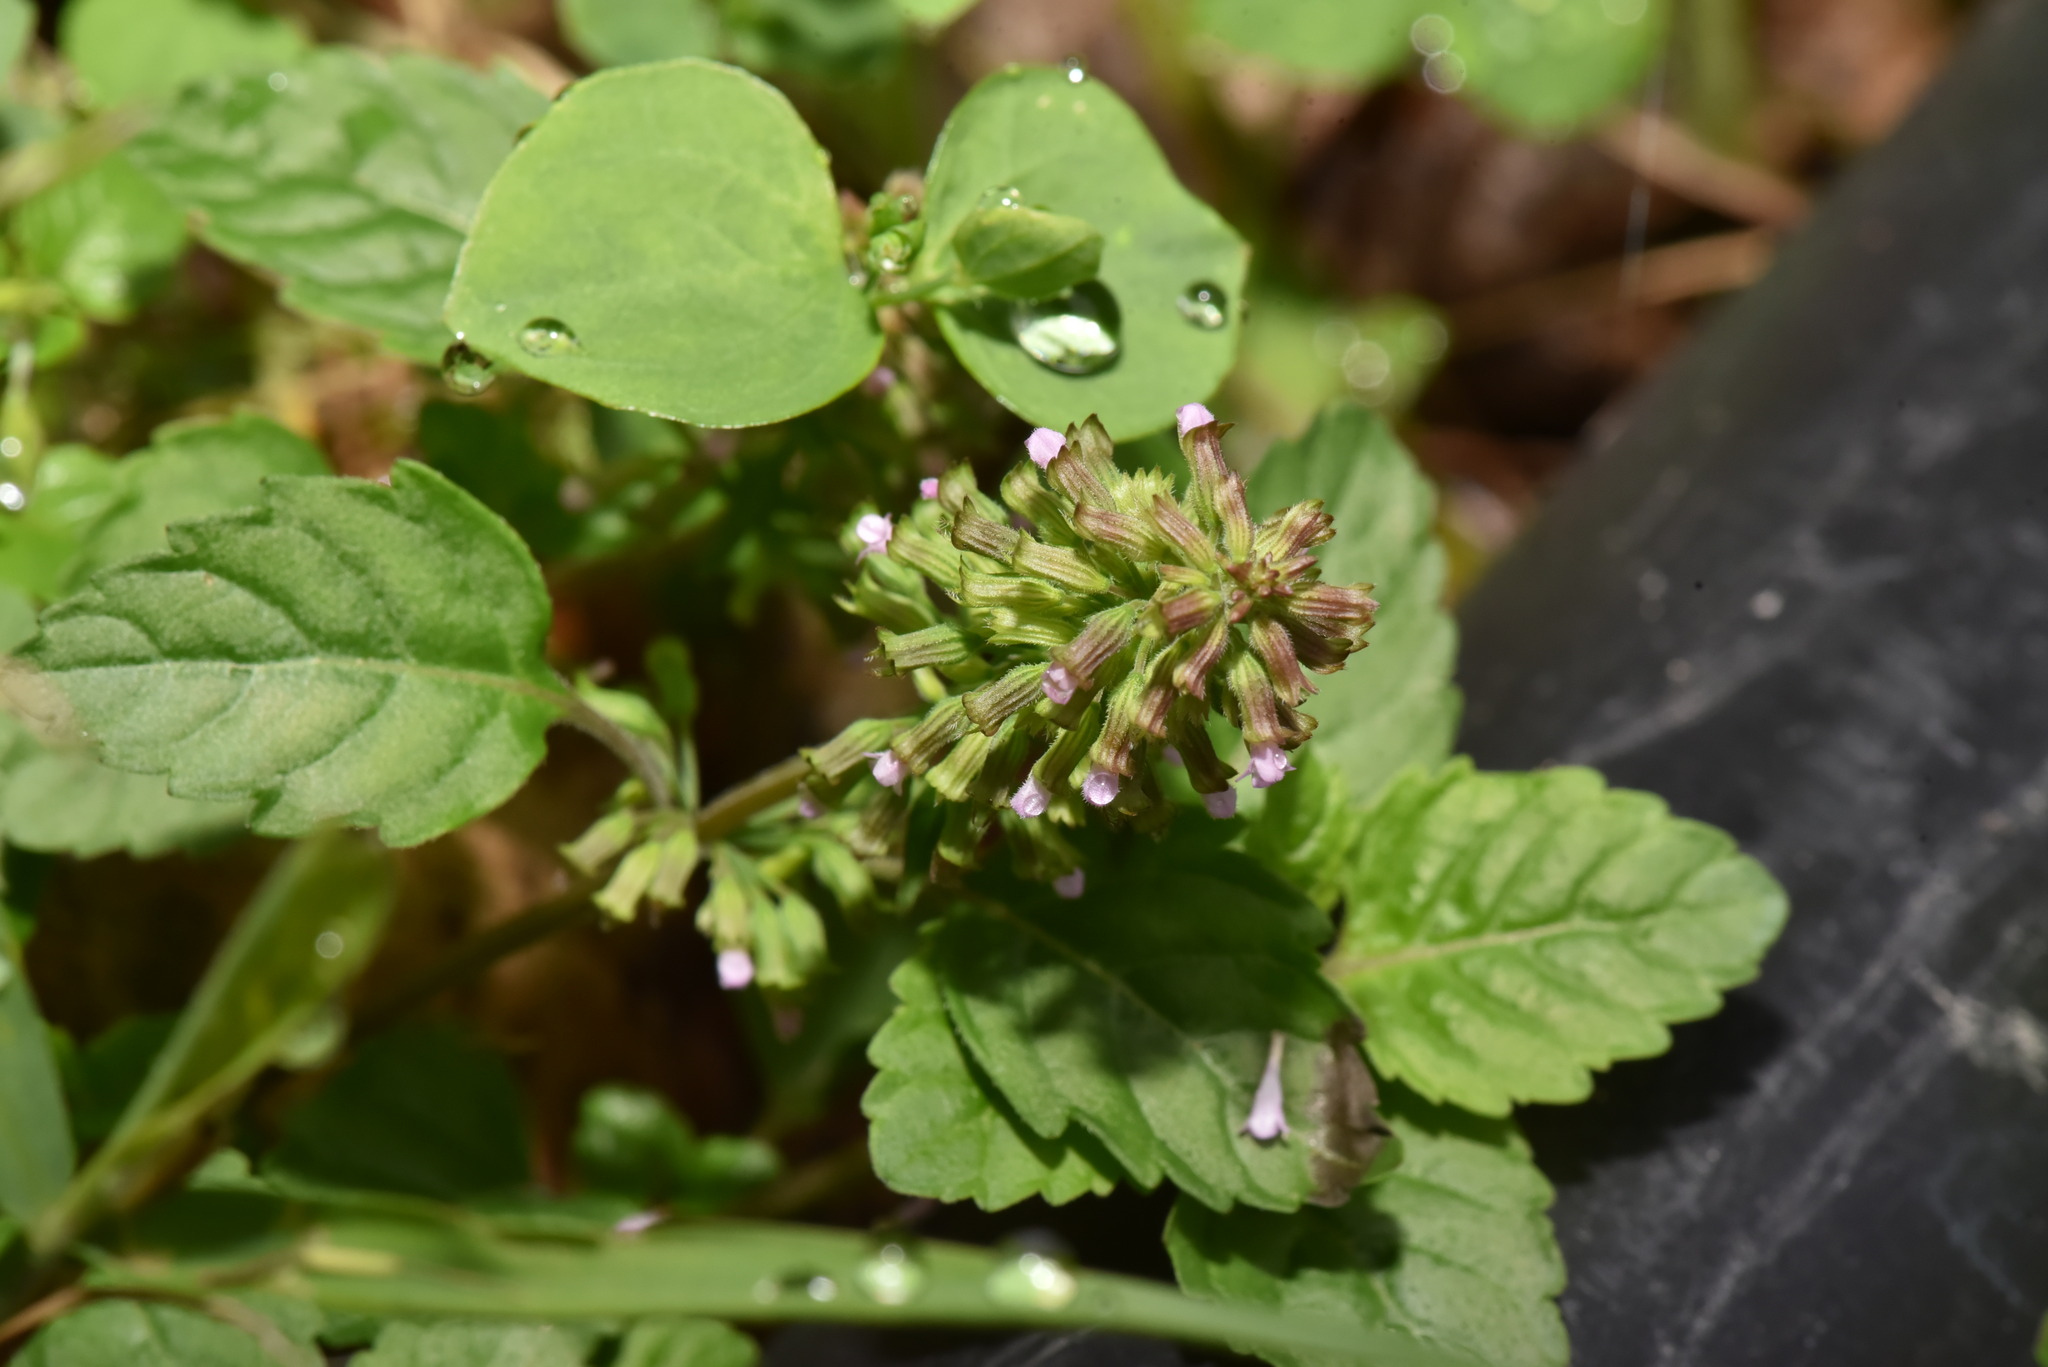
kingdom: Plantae
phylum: Tracheophyta
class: Magnoliopsida
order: Lamiales
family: Lamiaceae
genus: Clinopodium
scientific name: Clinopodium gracile
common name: Slender wild basil
